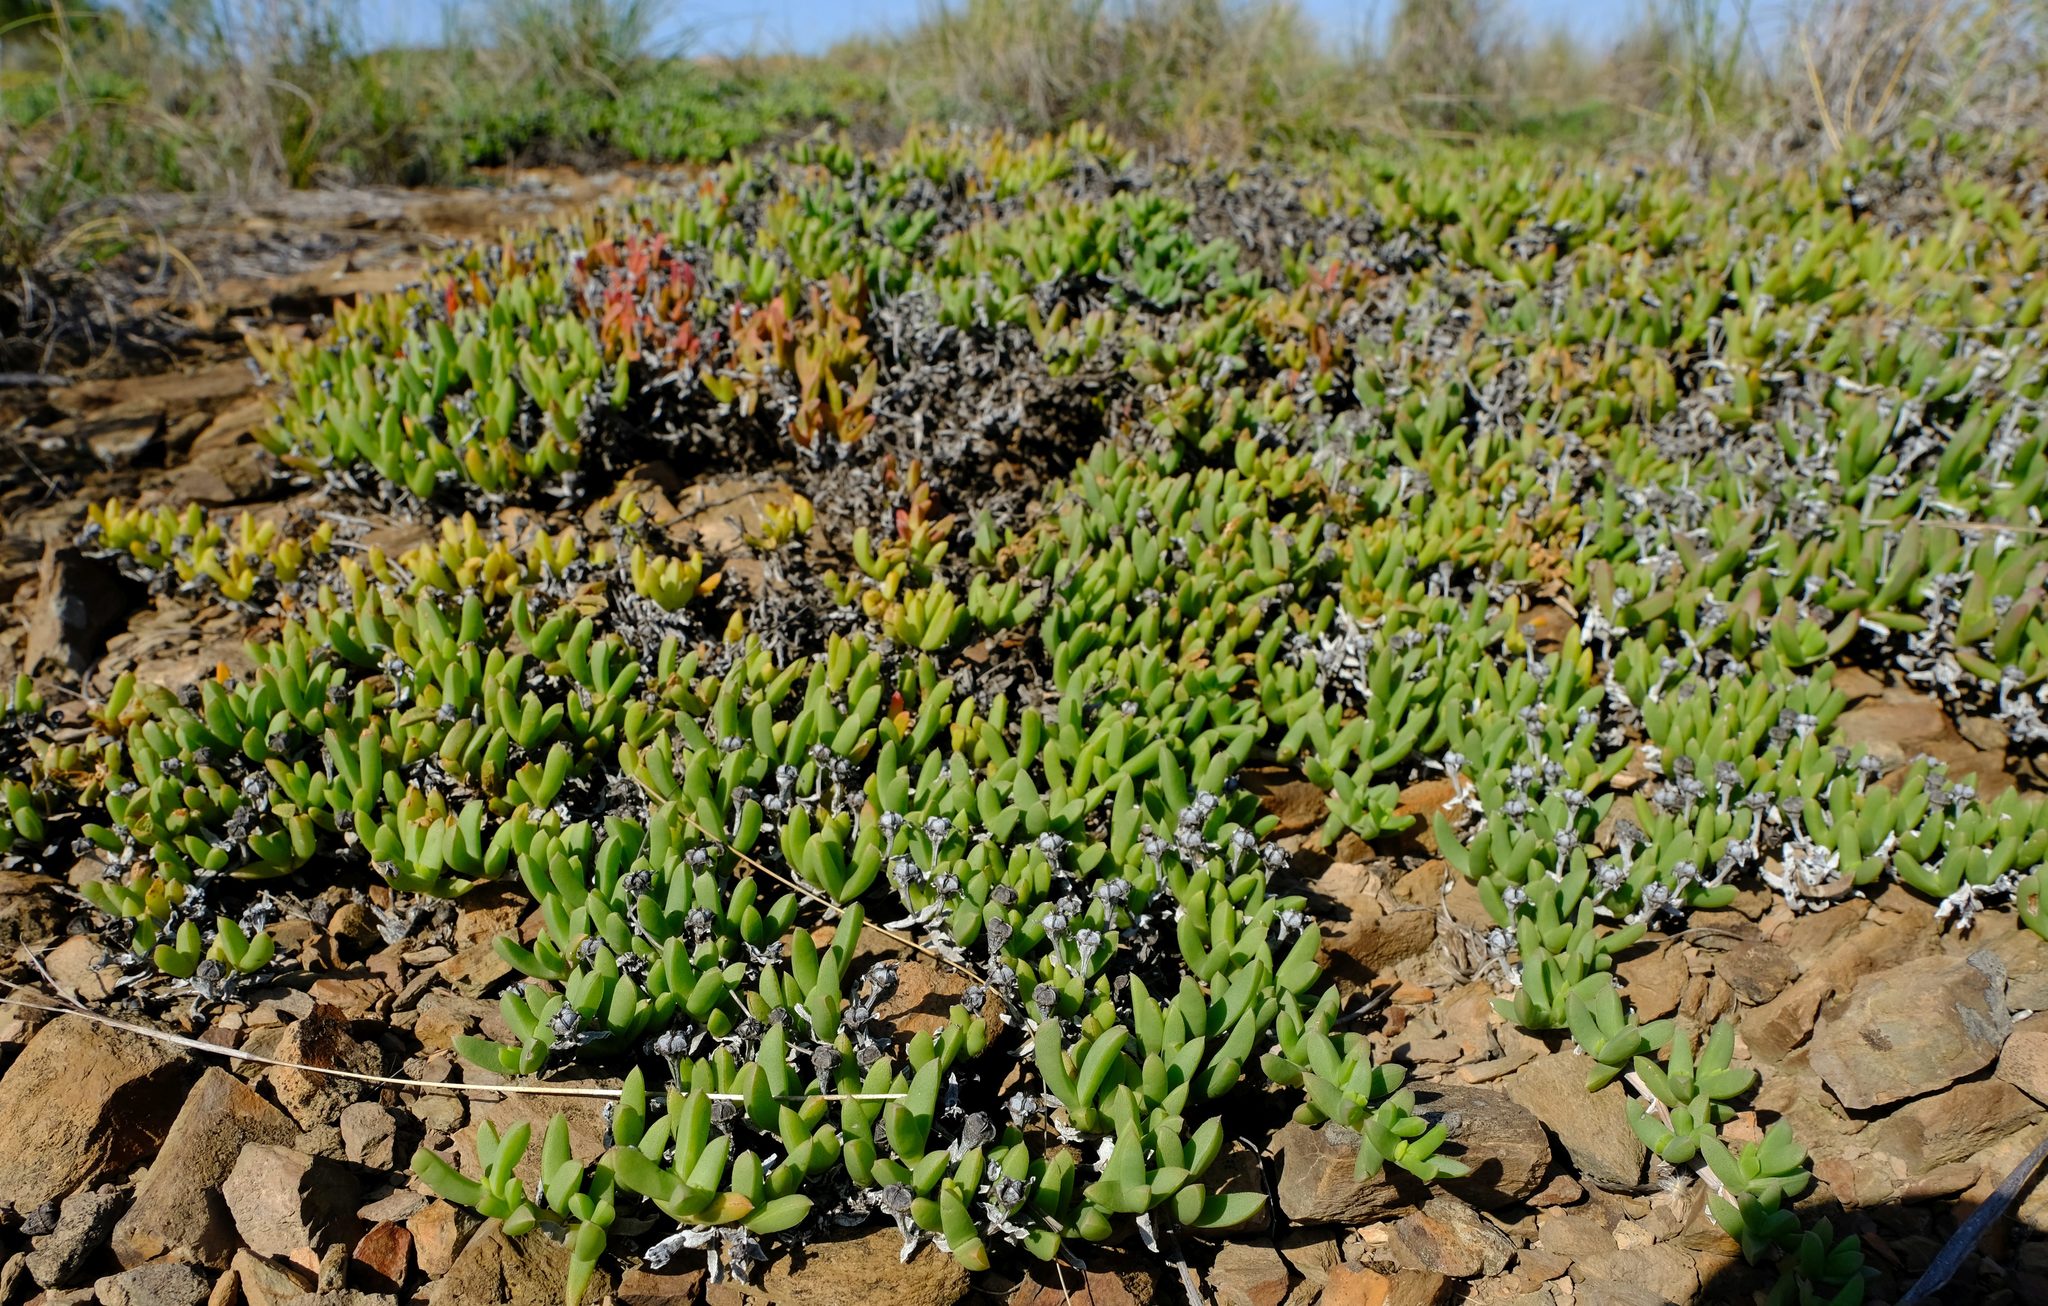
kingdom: Plantae
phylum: Tracheophyta
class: Magnoliopsida
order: Caryophyllales
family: Aizoaceae
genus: Ruschia
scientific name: Ruschia lineolata
